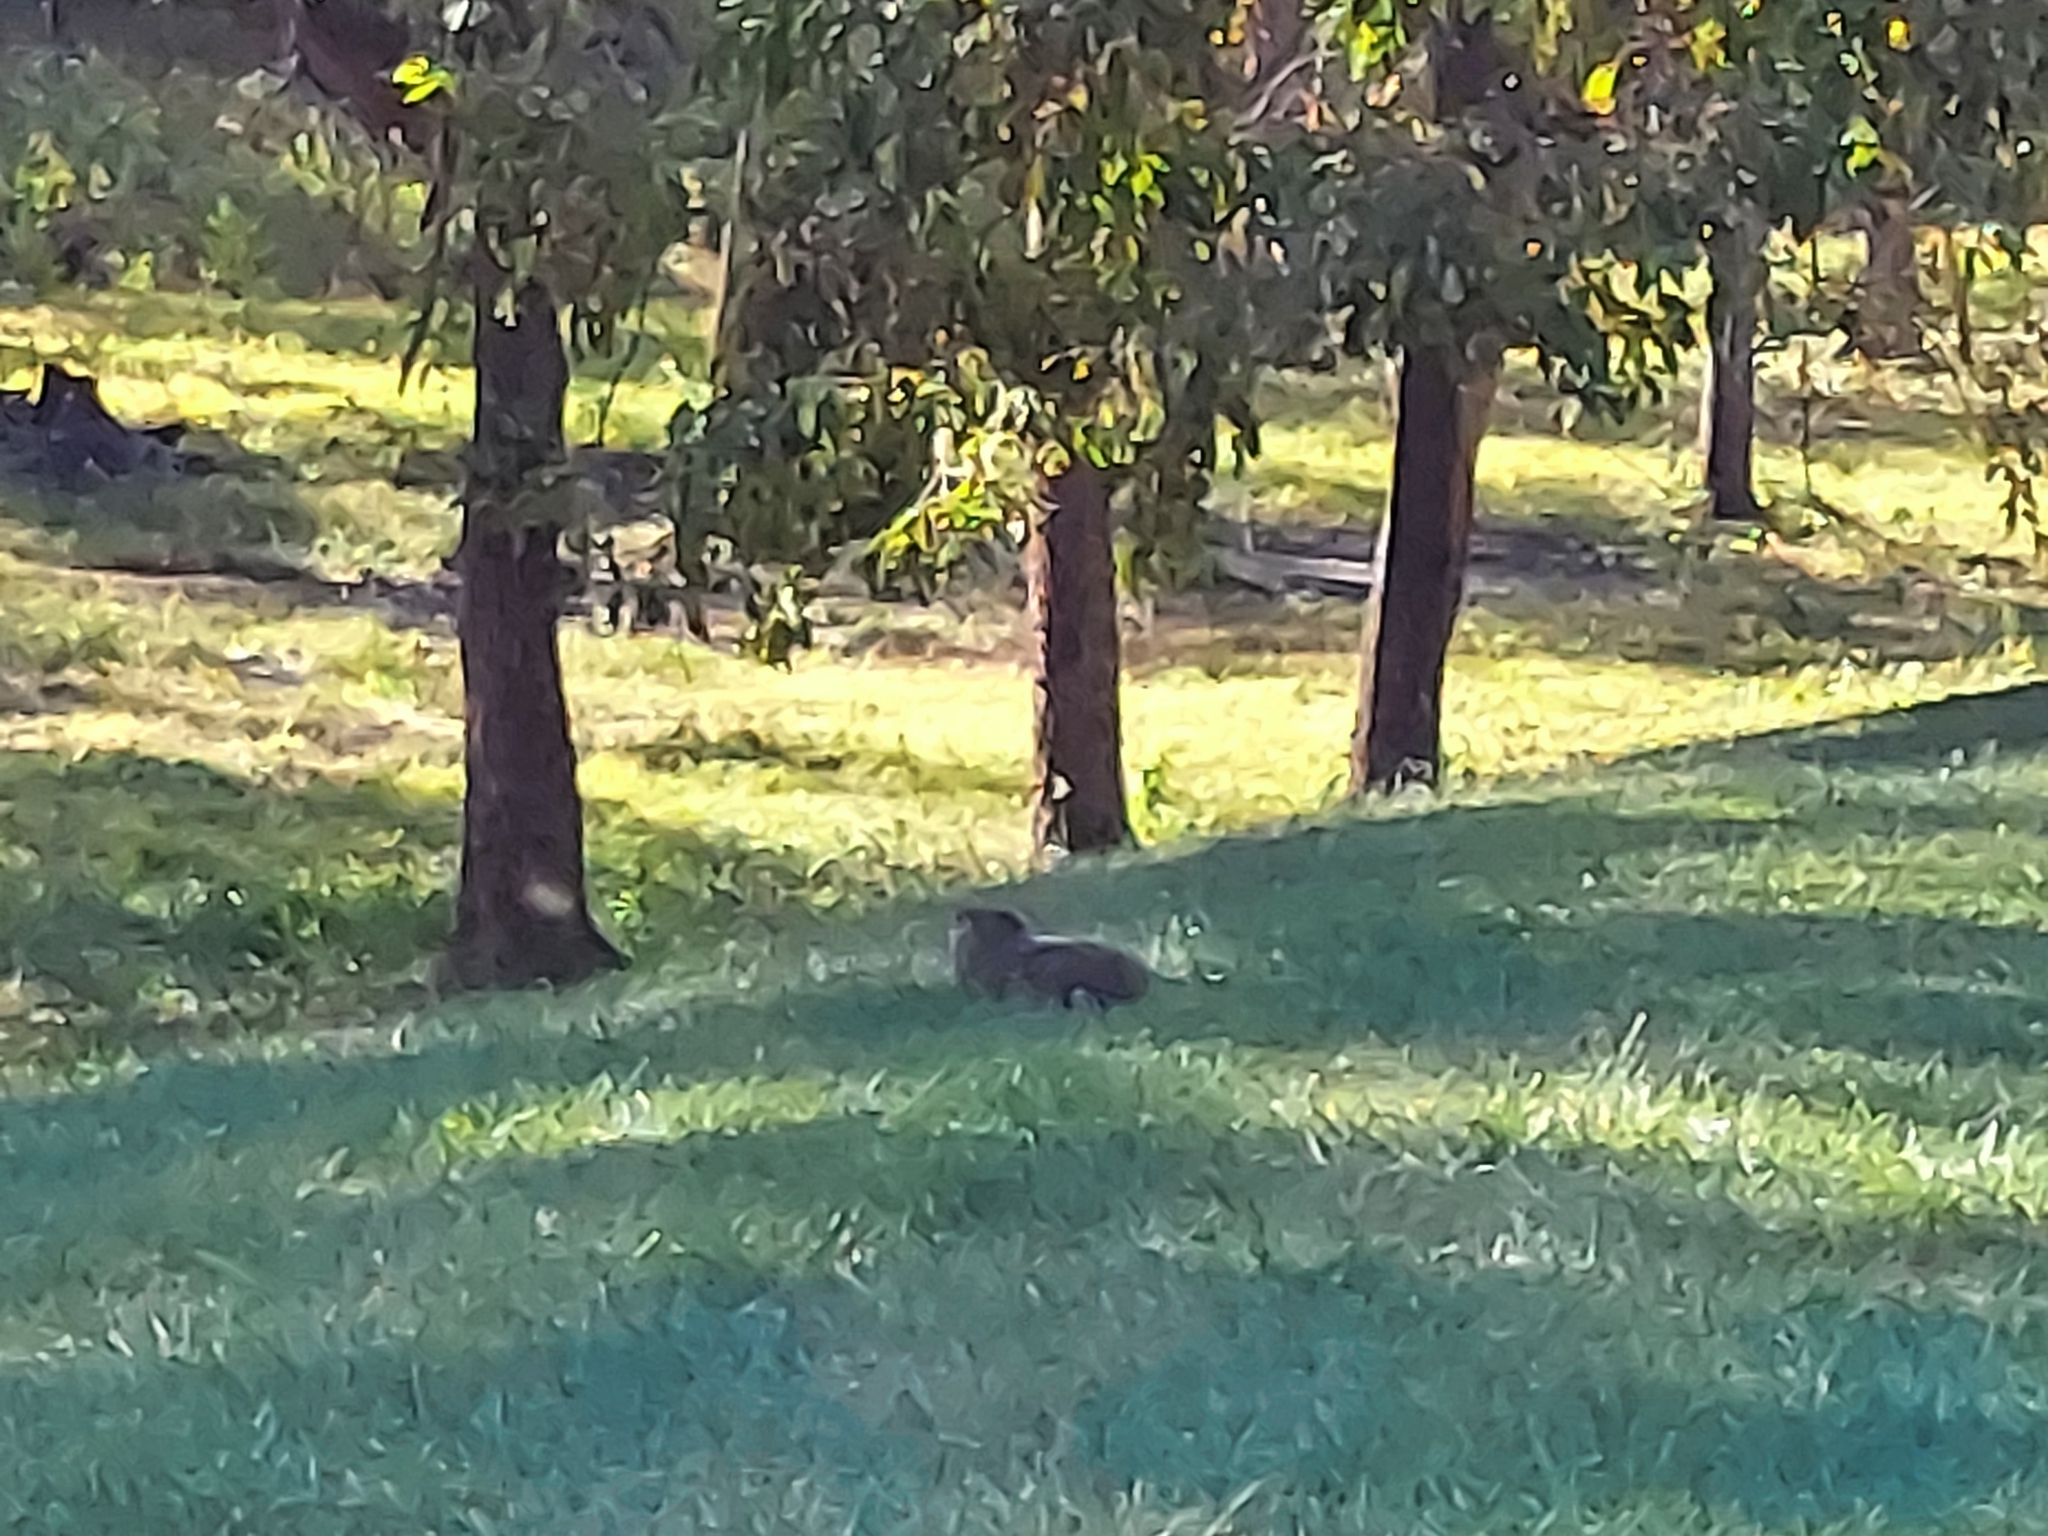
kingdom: Animalia
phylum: Chordata
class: Mammalia
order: Rodentia
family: Sciuridae
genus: Marmota
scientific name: Marmota monax
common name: Groundhog
